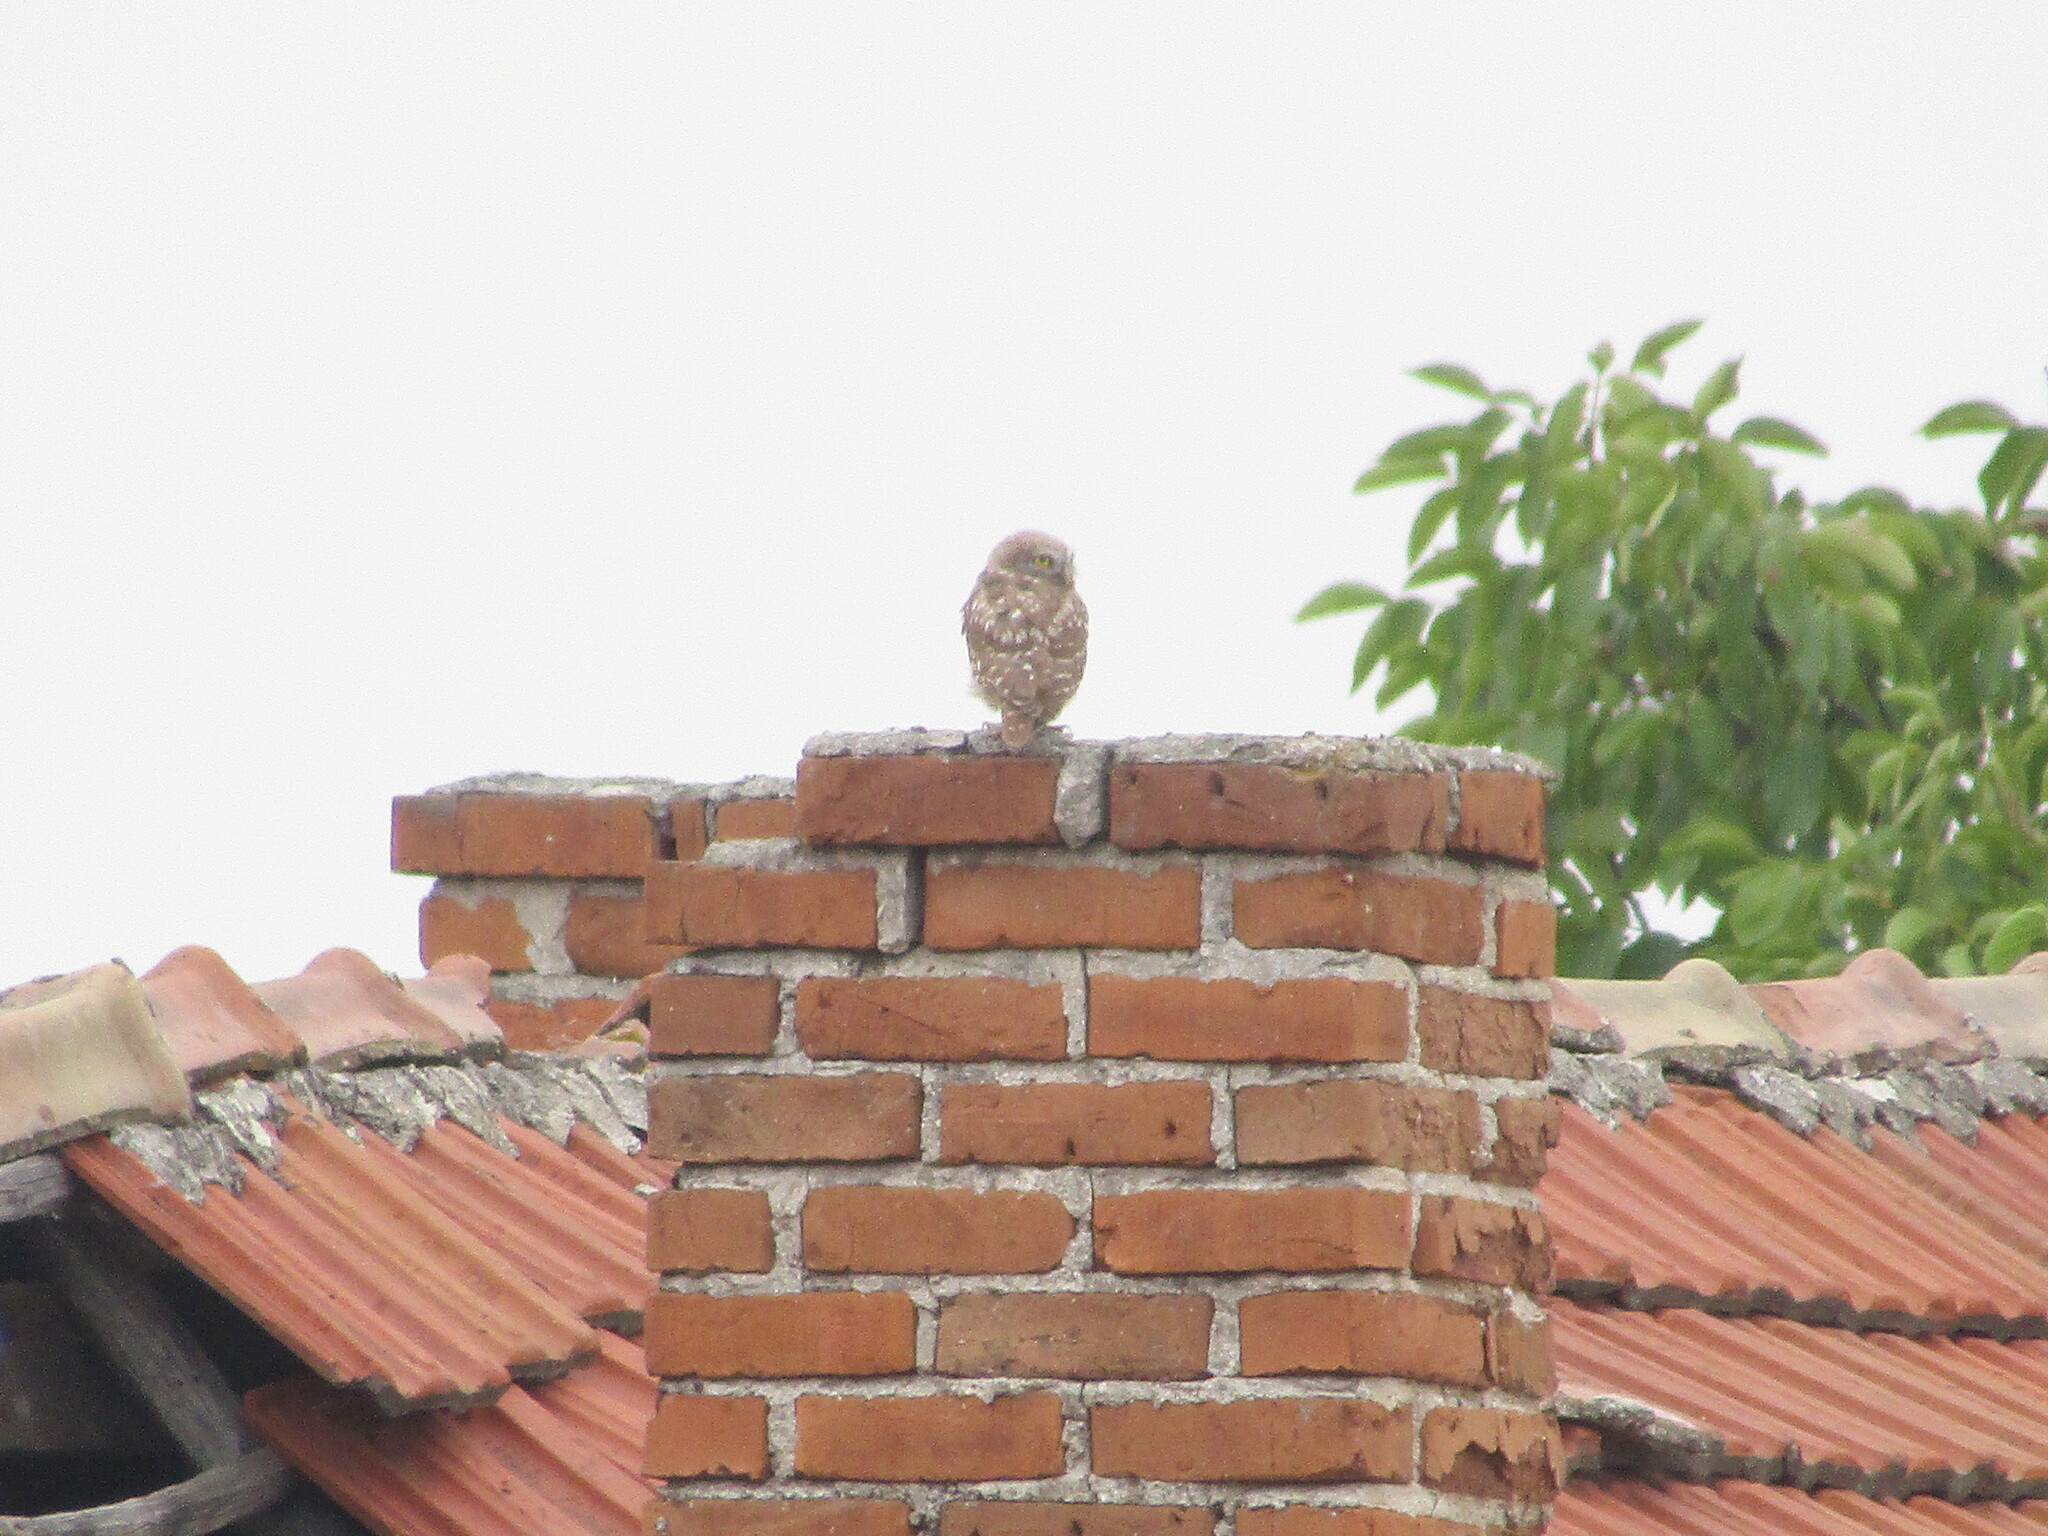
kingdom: Animalia
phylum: Chordata
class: Aves
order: Strigiformes
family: Strigidae
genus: Athene
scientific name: Athene noctua
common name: Little owl
